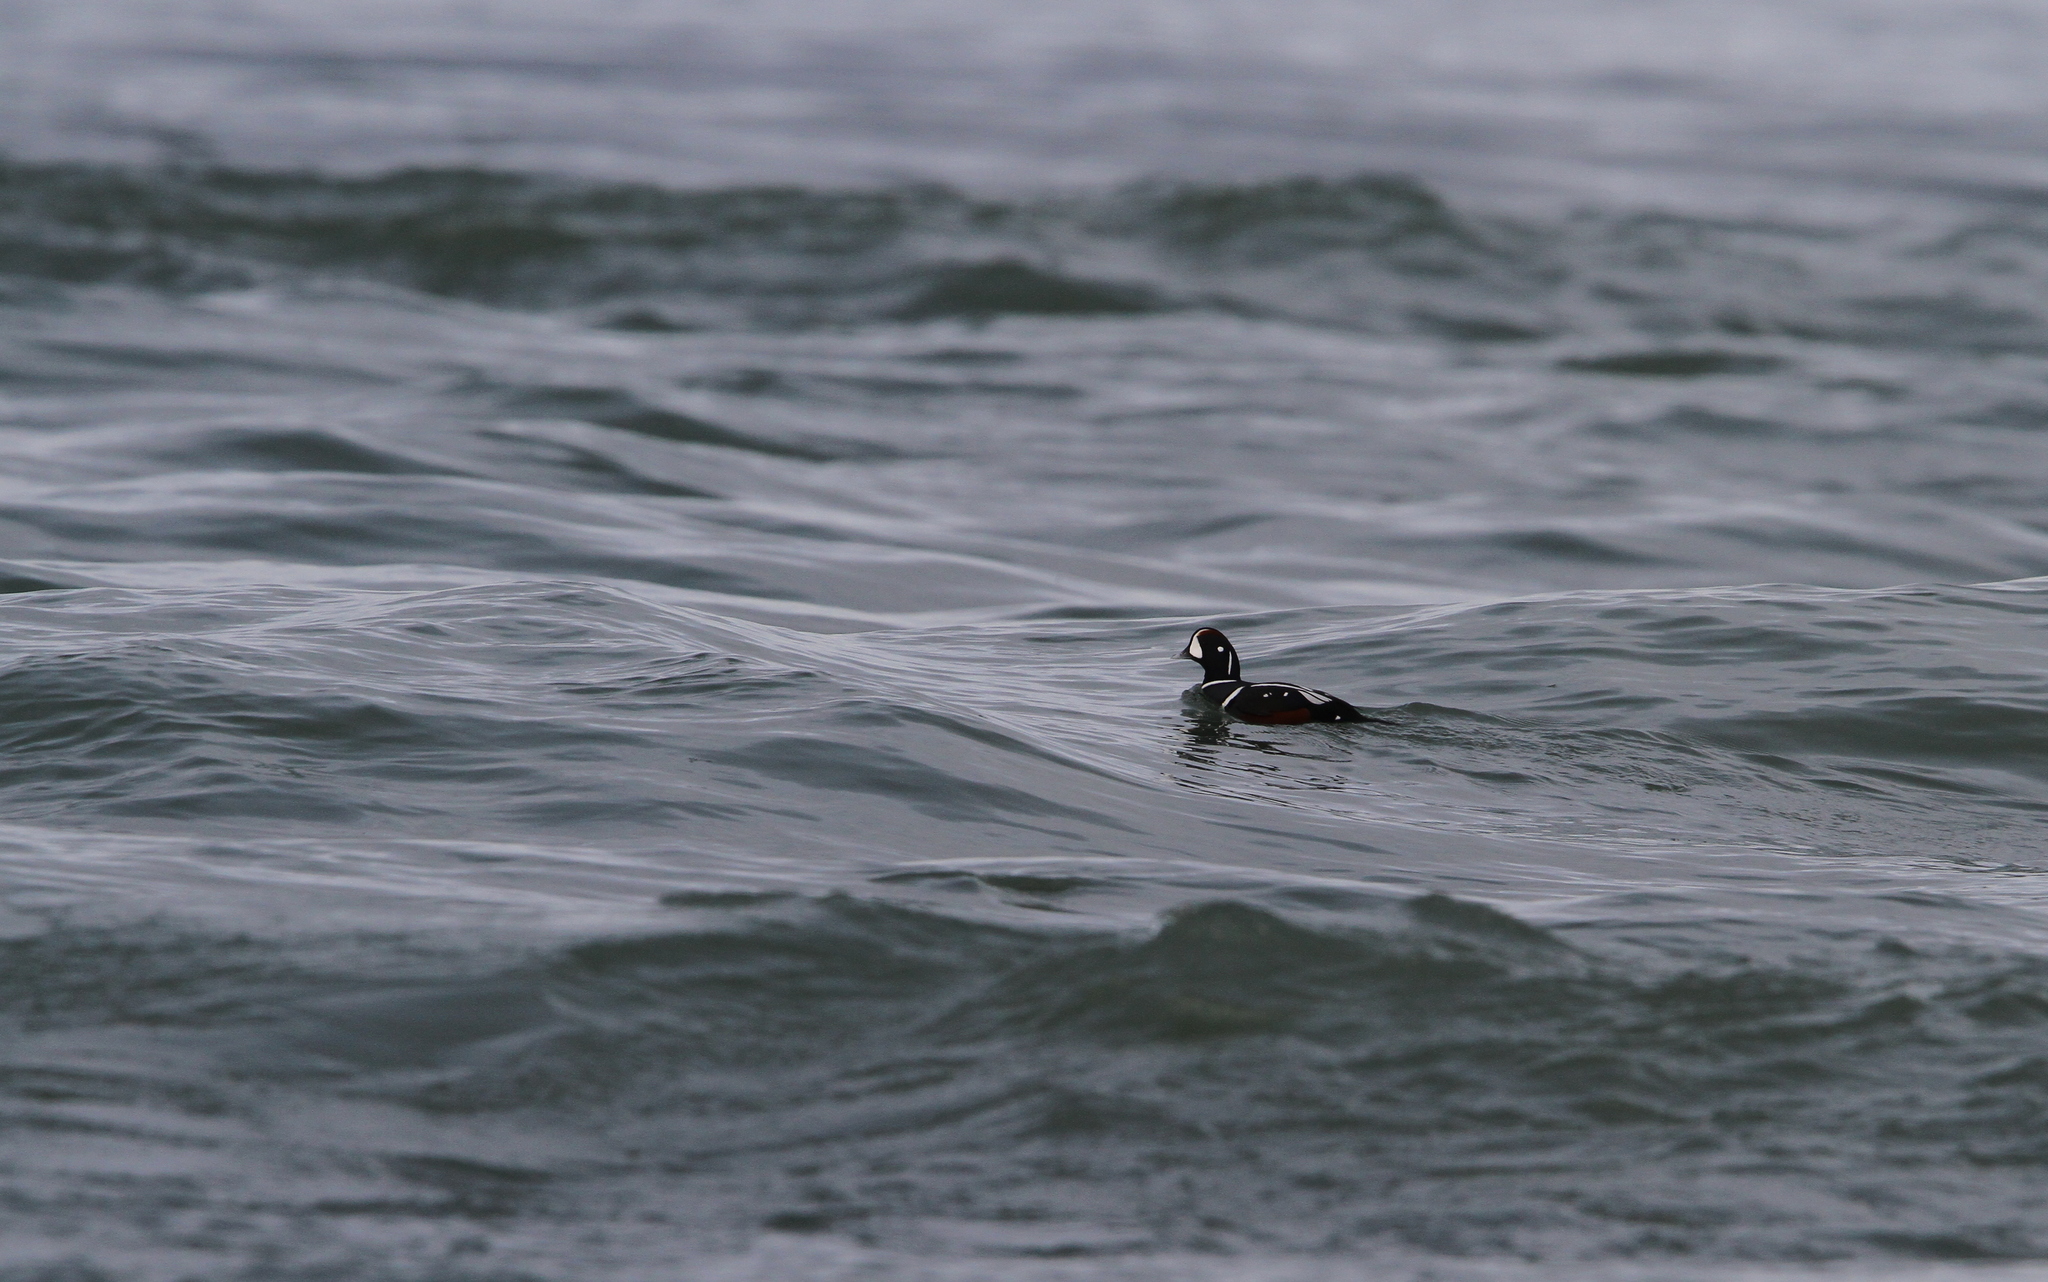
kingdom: Animalia
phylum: Chordata
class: Aves
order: Anseriformes
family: Anatidae
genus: Histrionicus
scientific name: Histrionicus histrionicus
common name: Harlequin duck
